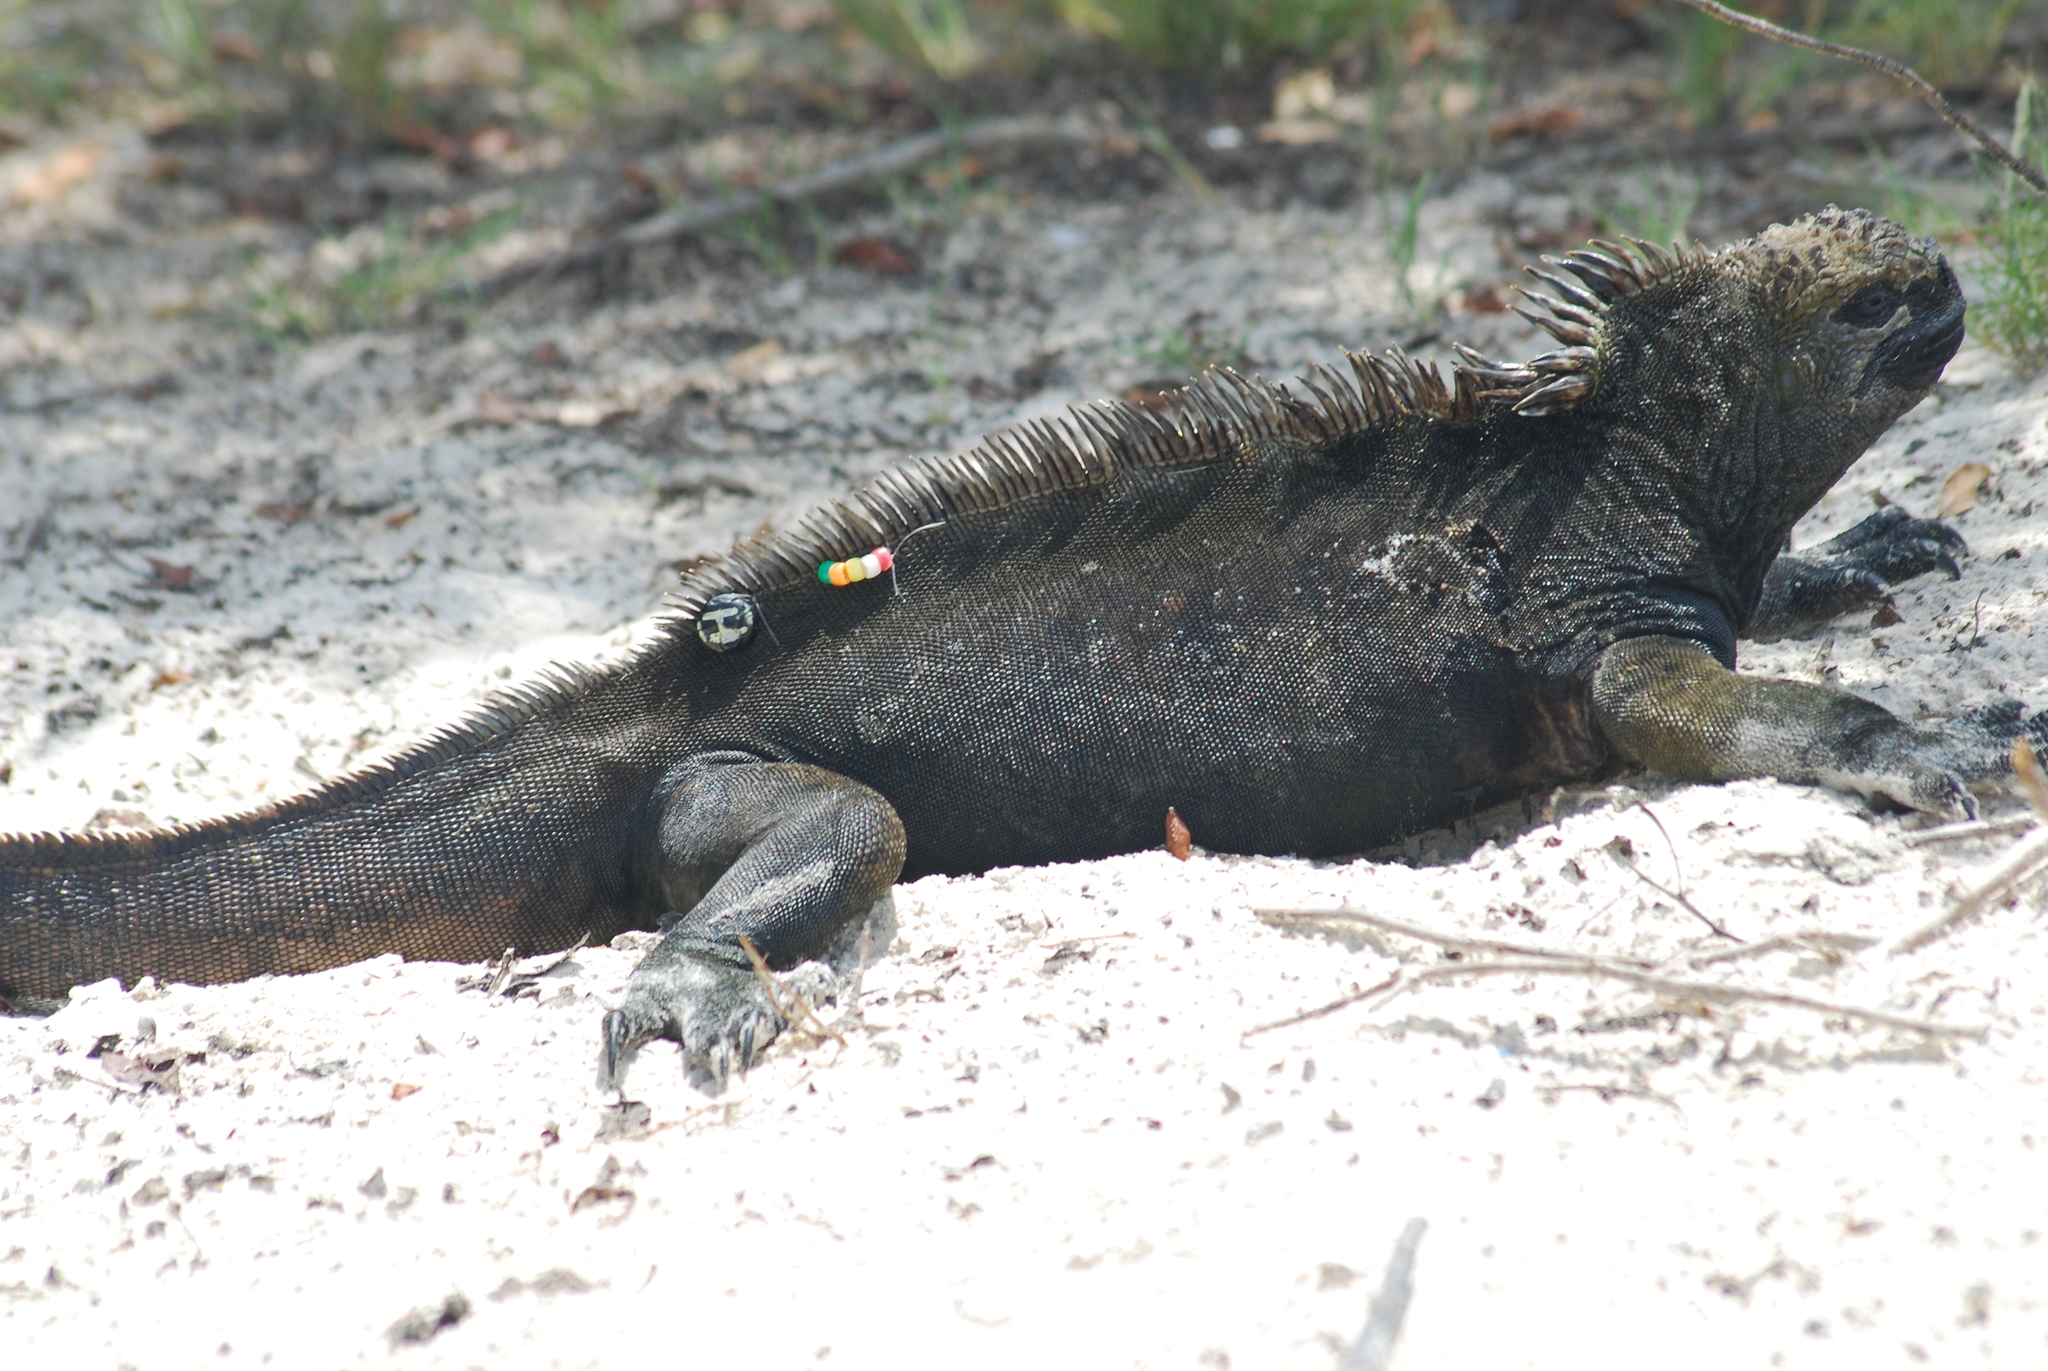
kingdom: Animalia
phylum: Chordata
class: Squamata
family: Iguanidae
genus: Amblyrhynchus
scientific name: Amblyrhynchus cristatus
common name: Marine iguana
